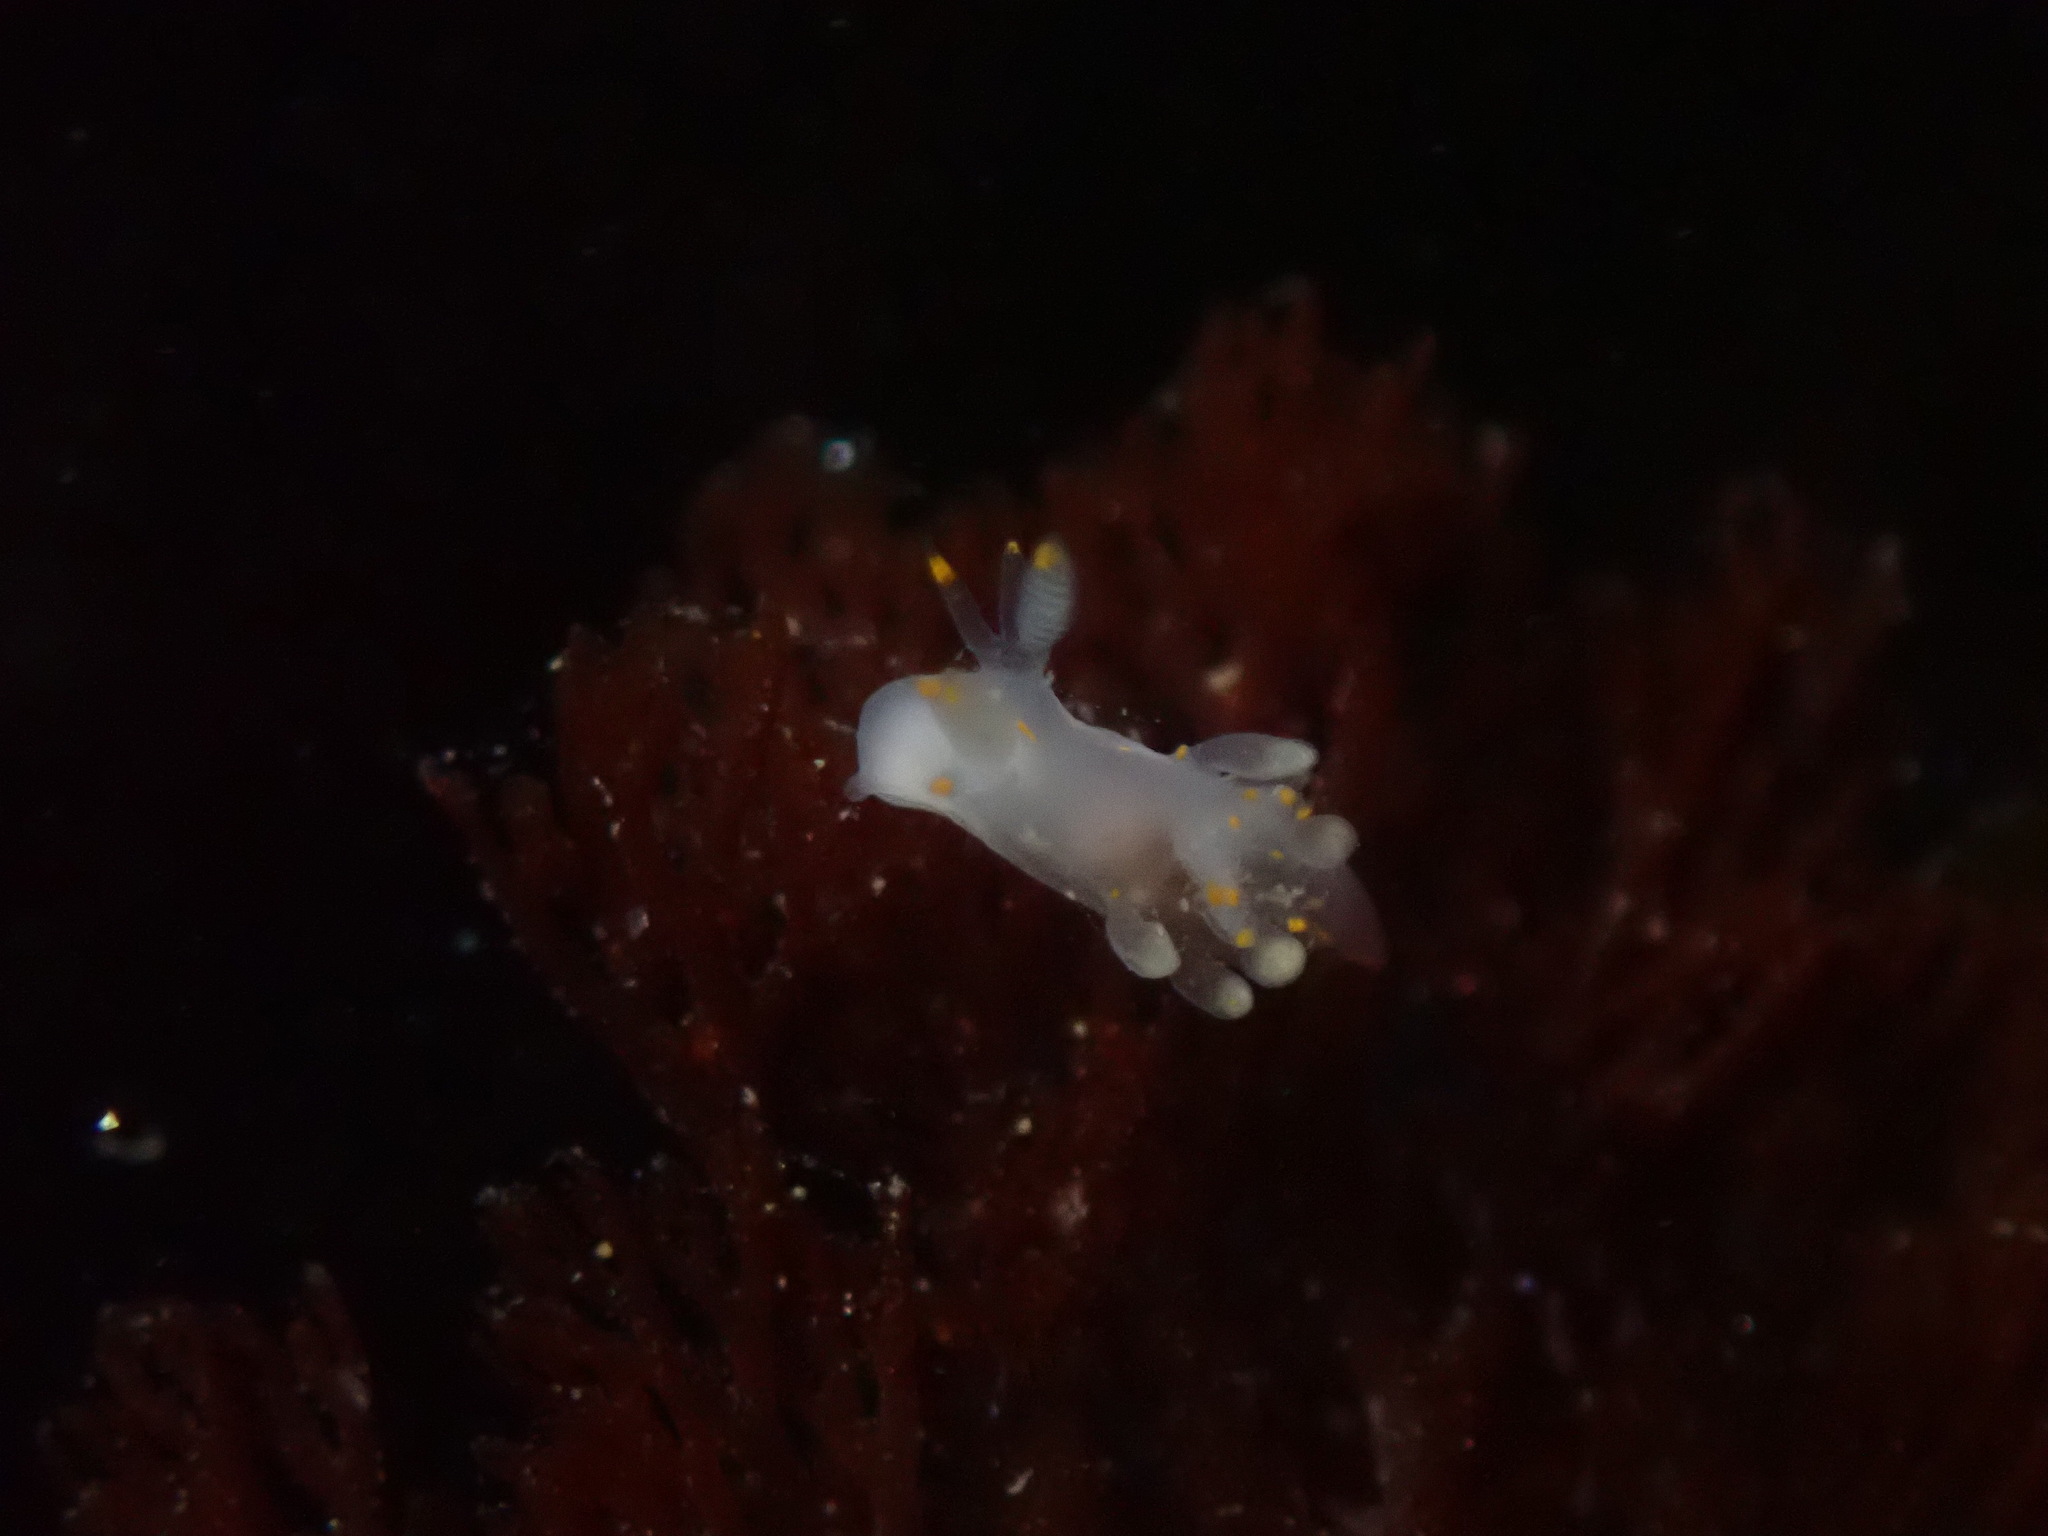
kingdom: Animalia
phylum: Mollusca
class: Gastropoda
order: Nudibranchia
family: Goniodorididae
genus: Ancula
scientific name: Ancula pacifica
